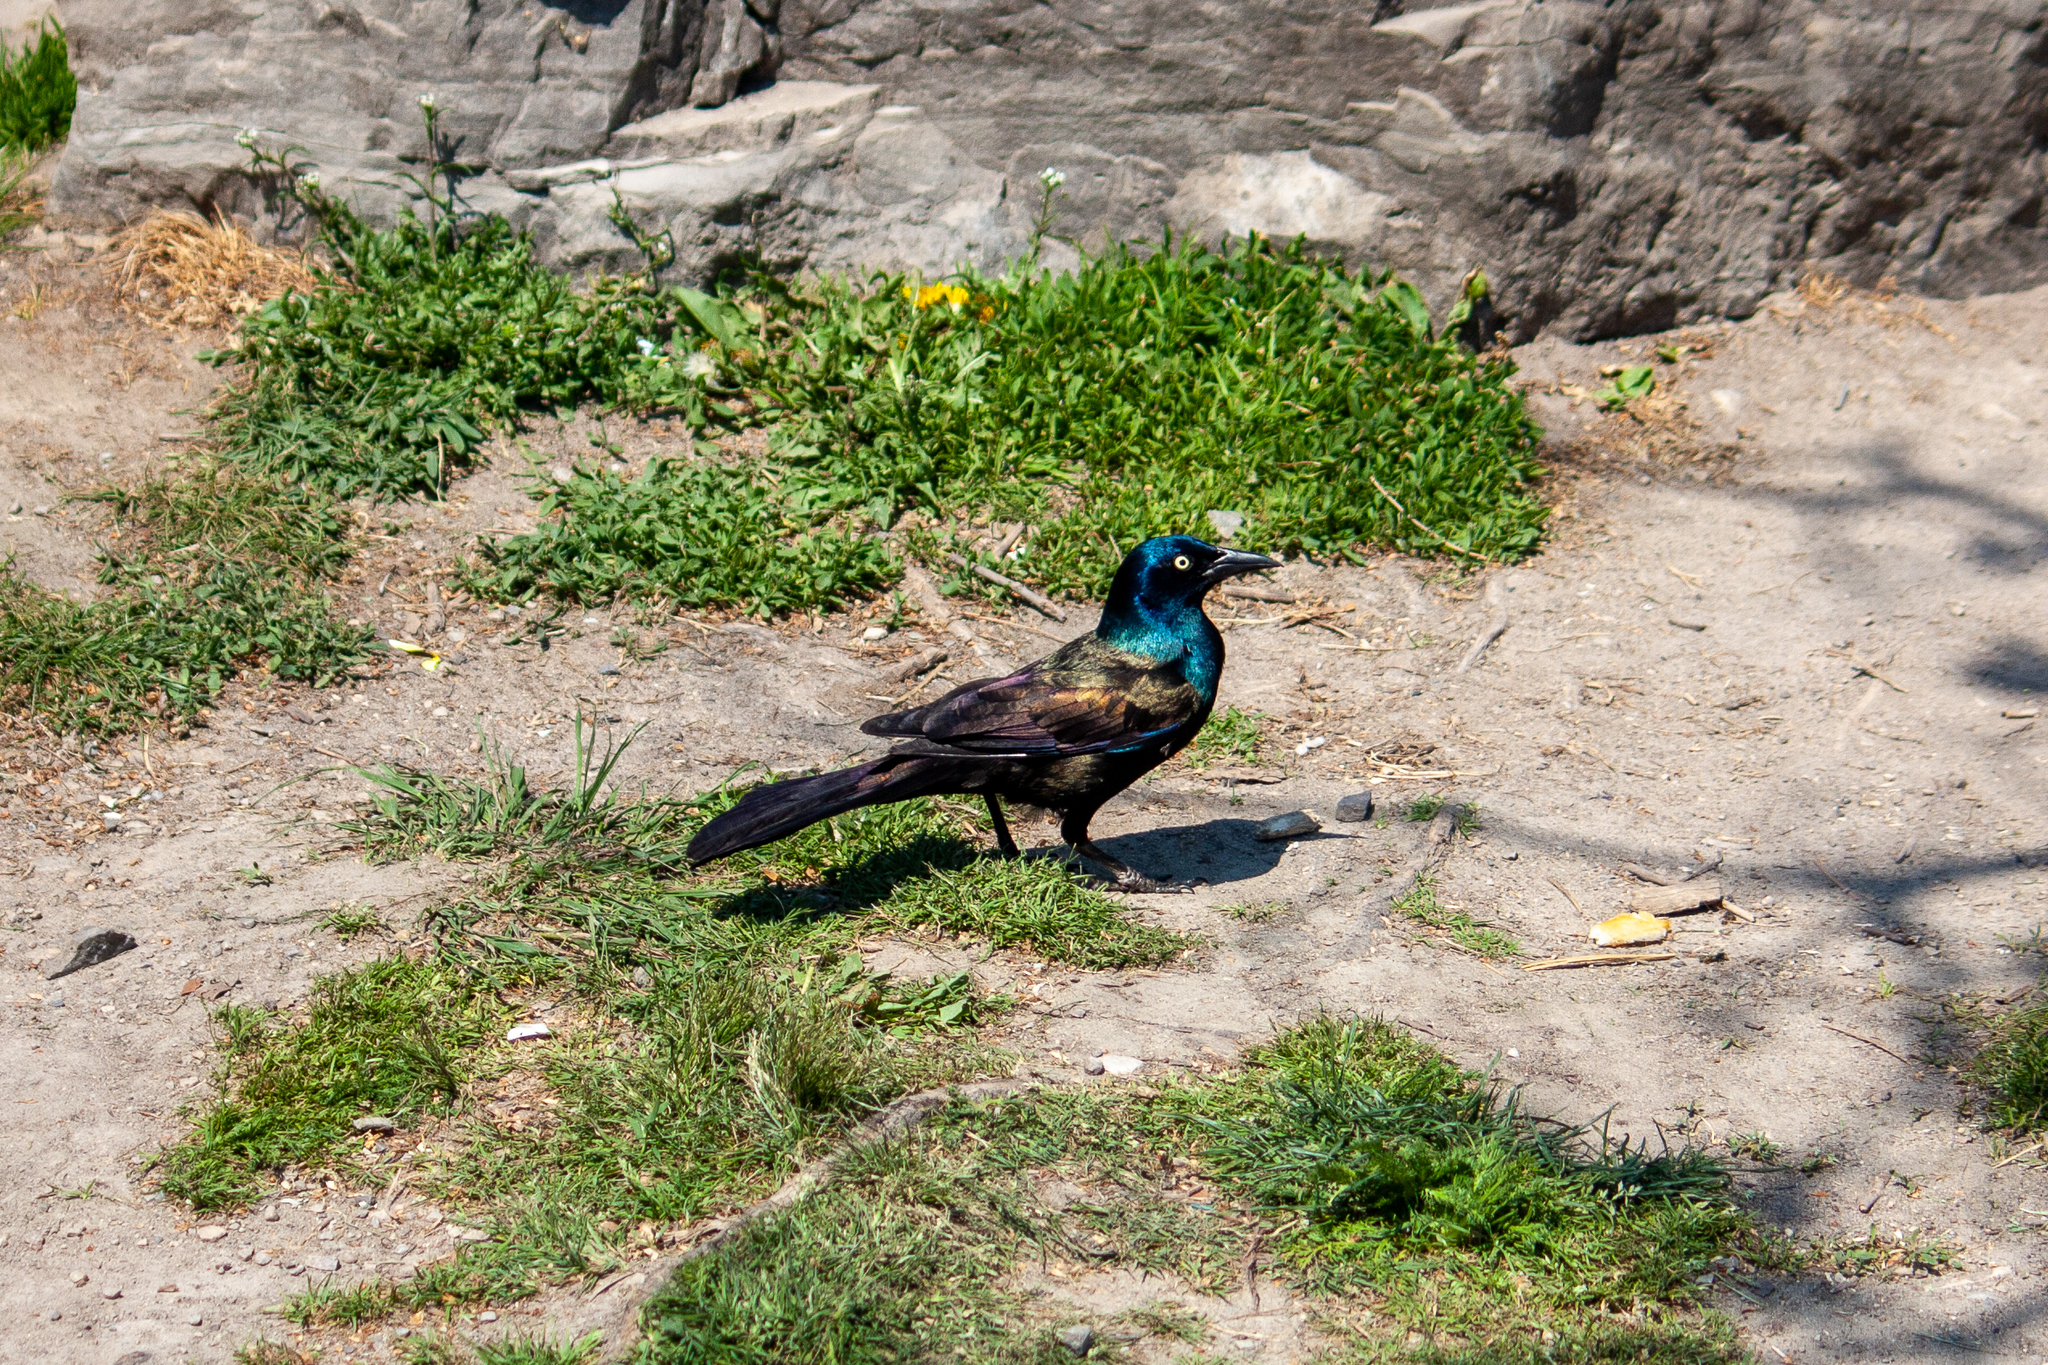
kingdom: Animalia
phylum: Chordata
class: Aves
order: Passeriformes
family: Icteridae
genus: Quiscalus
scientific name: Quiscalus quiscula
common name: Common grackle
